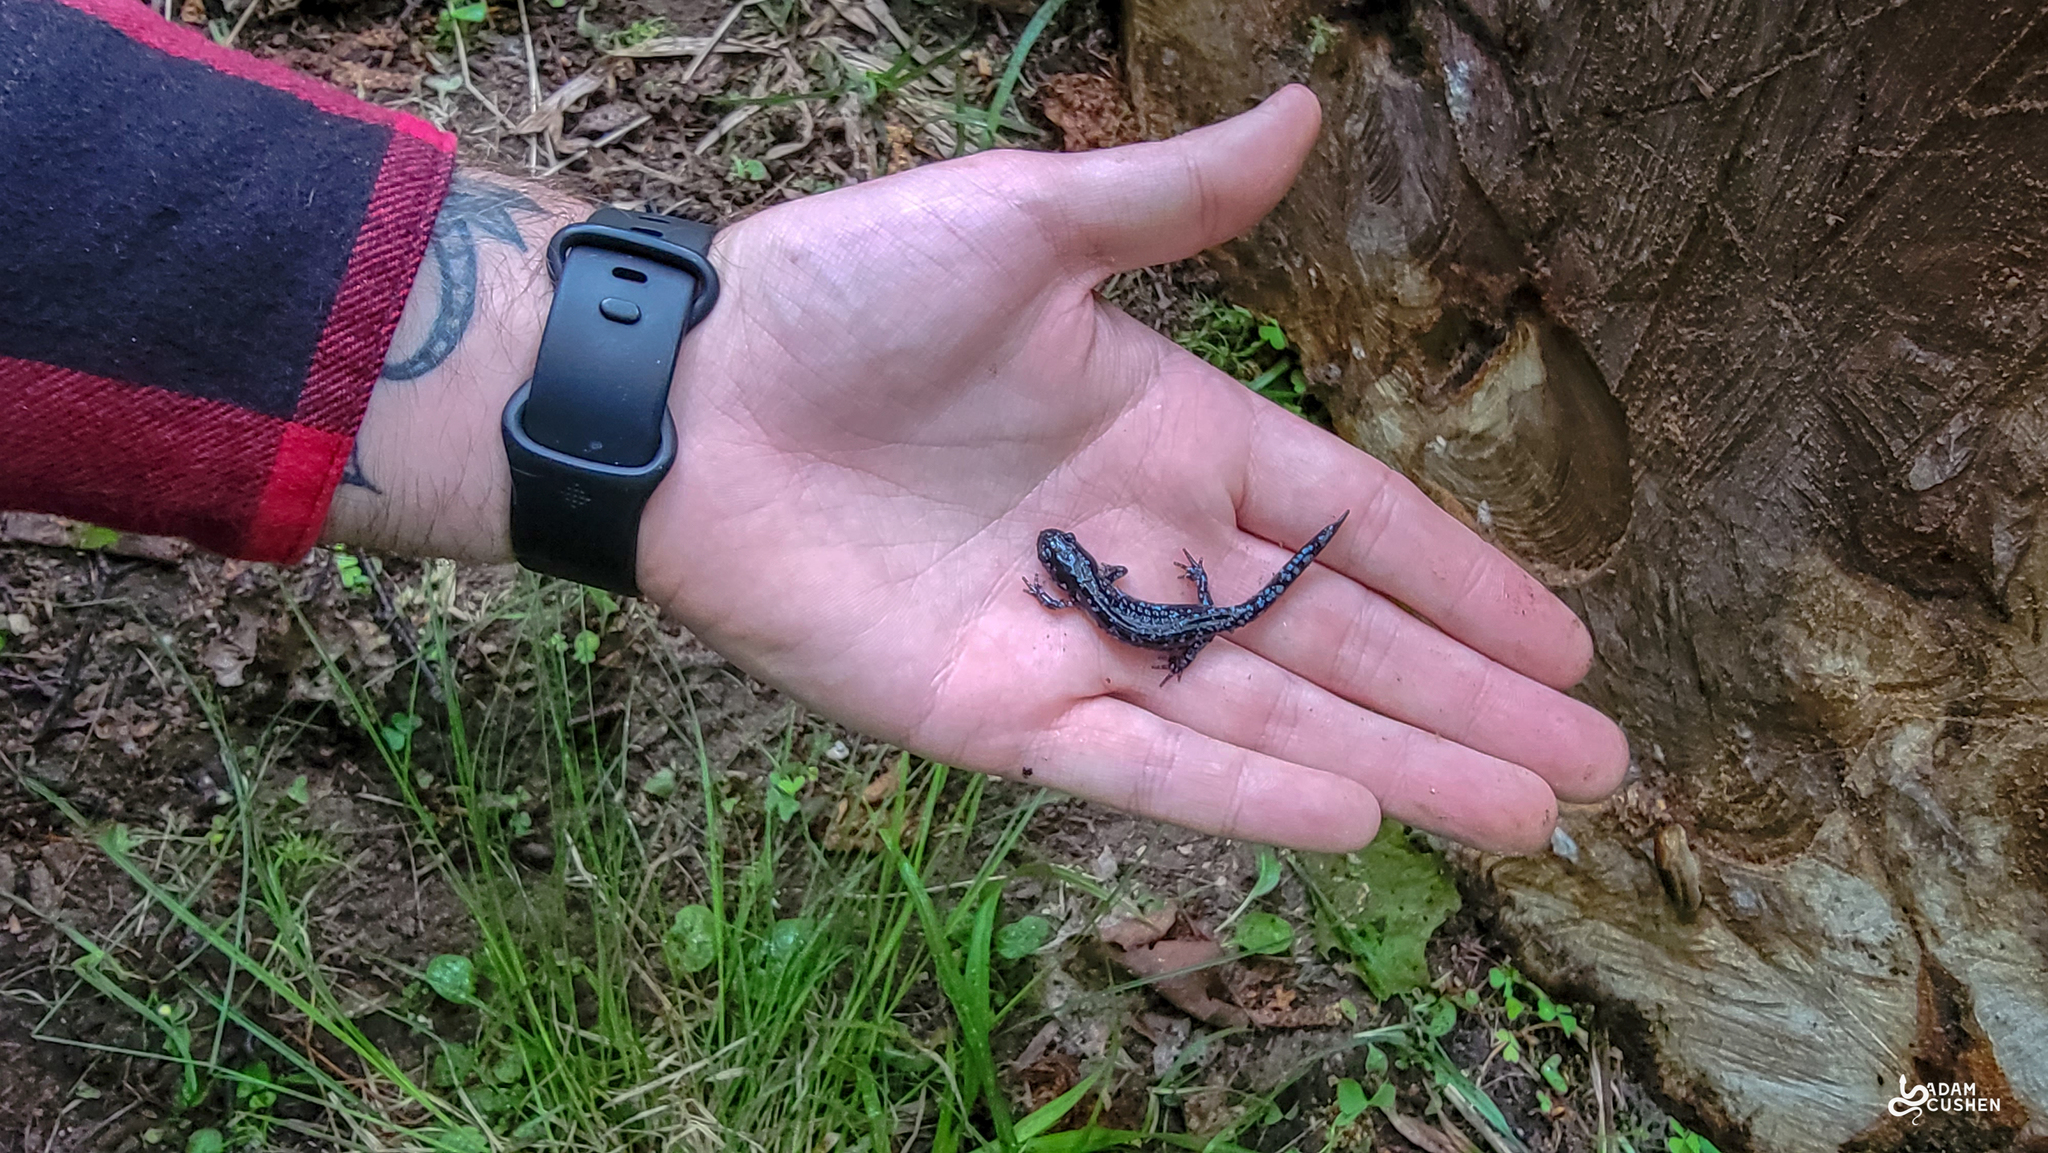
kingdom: Animalia
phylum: Chordata
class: Amphibia
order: Caudata
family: Ambystomatidae
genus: Ambystoma
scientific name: Ambystoma laterale
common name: Blue-spotted salamander
